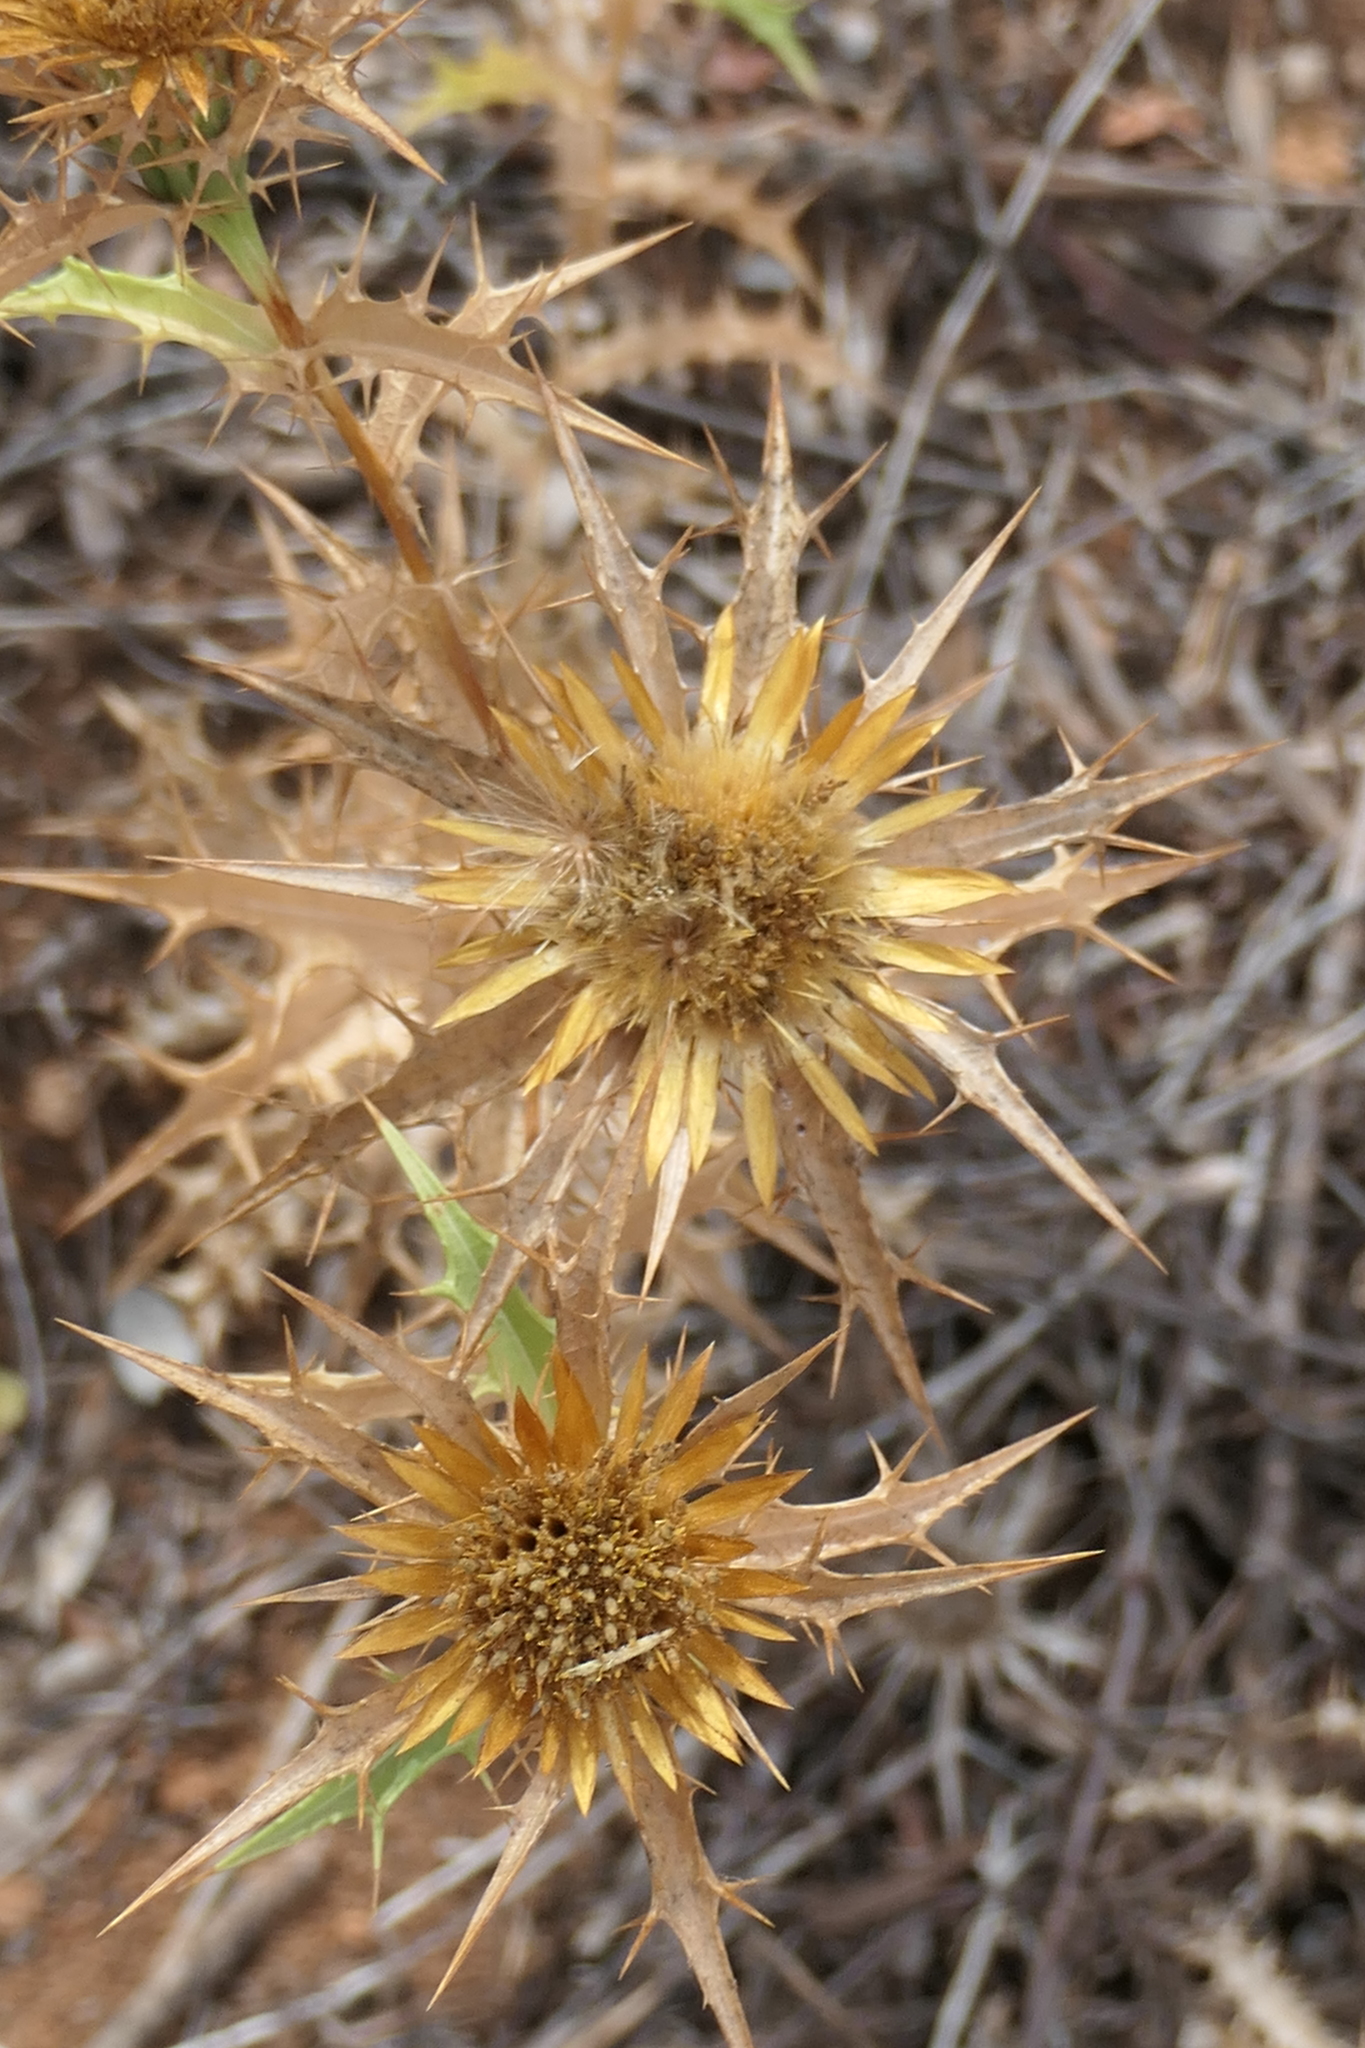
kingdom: Plantae
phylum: Tracheophyta
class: Magnoliopsida
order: Asterales
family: Asteraceae
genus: Carlina
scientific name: Carlina corymbosa
